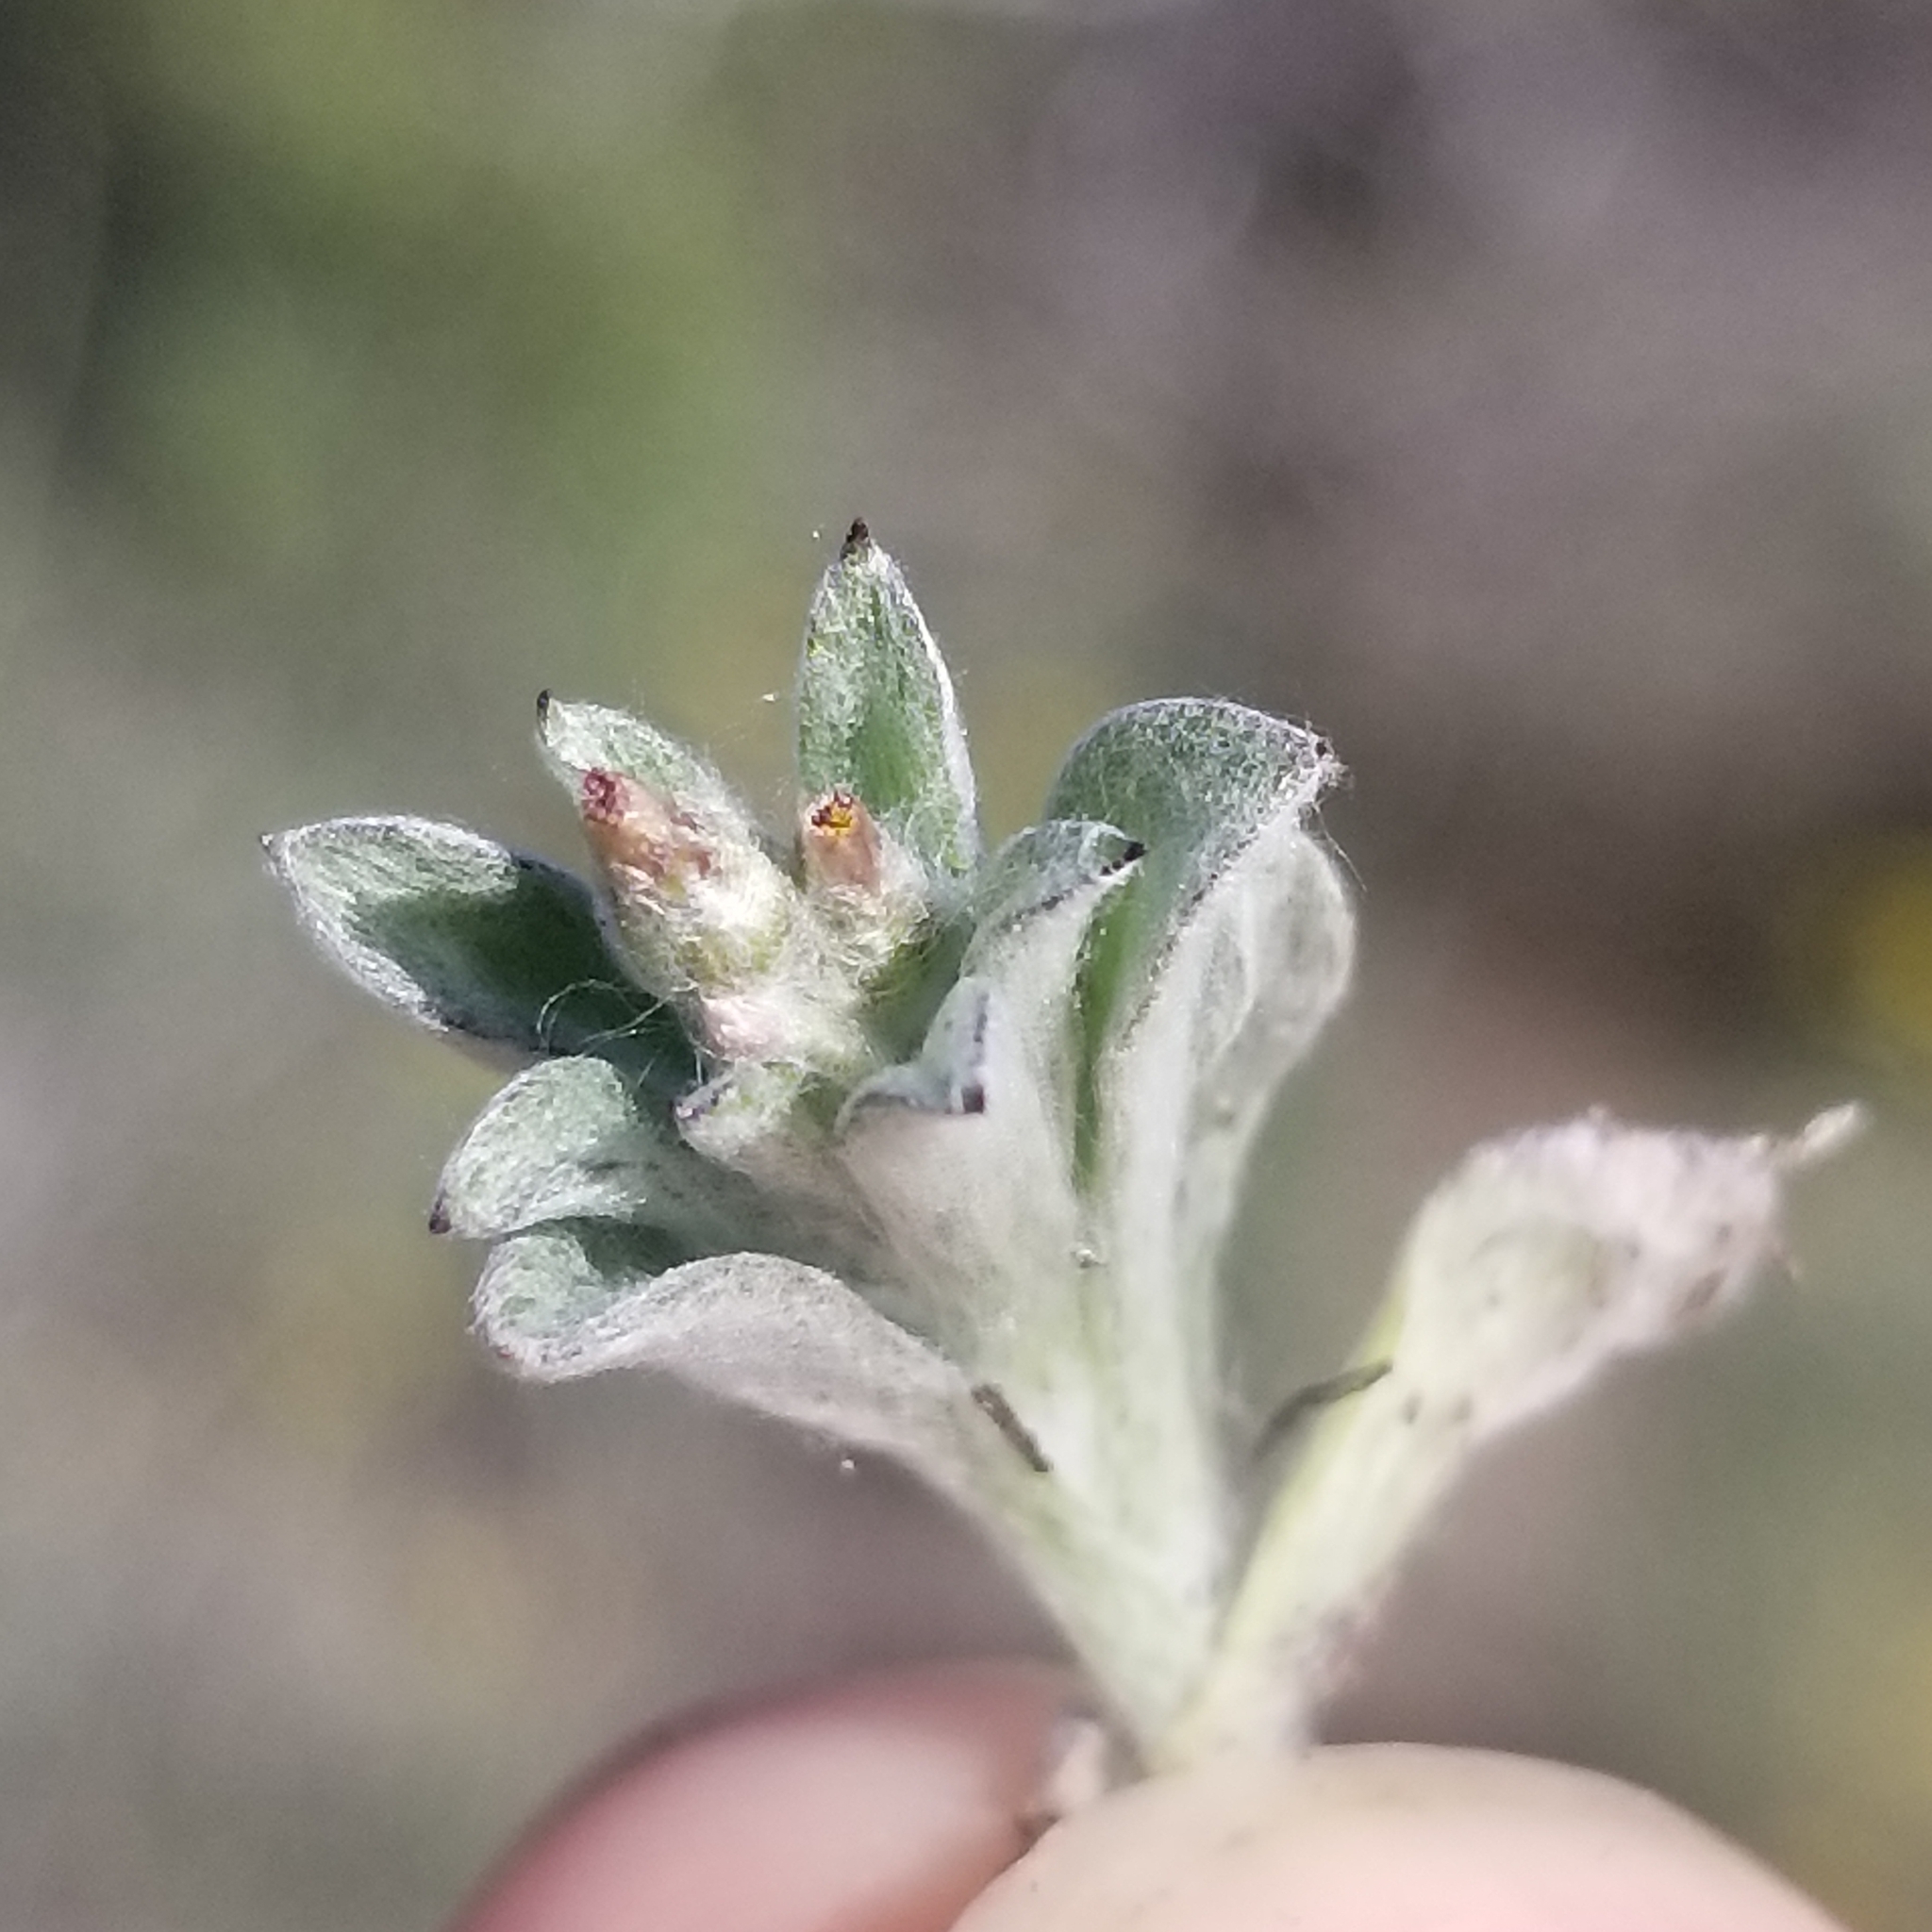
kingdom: Plantae
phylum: Tracheophyta
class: Magnoliopsida
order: Asterales
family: Asteraceae
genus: Gamochaeta
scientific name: Gamochaeta stagnalis
